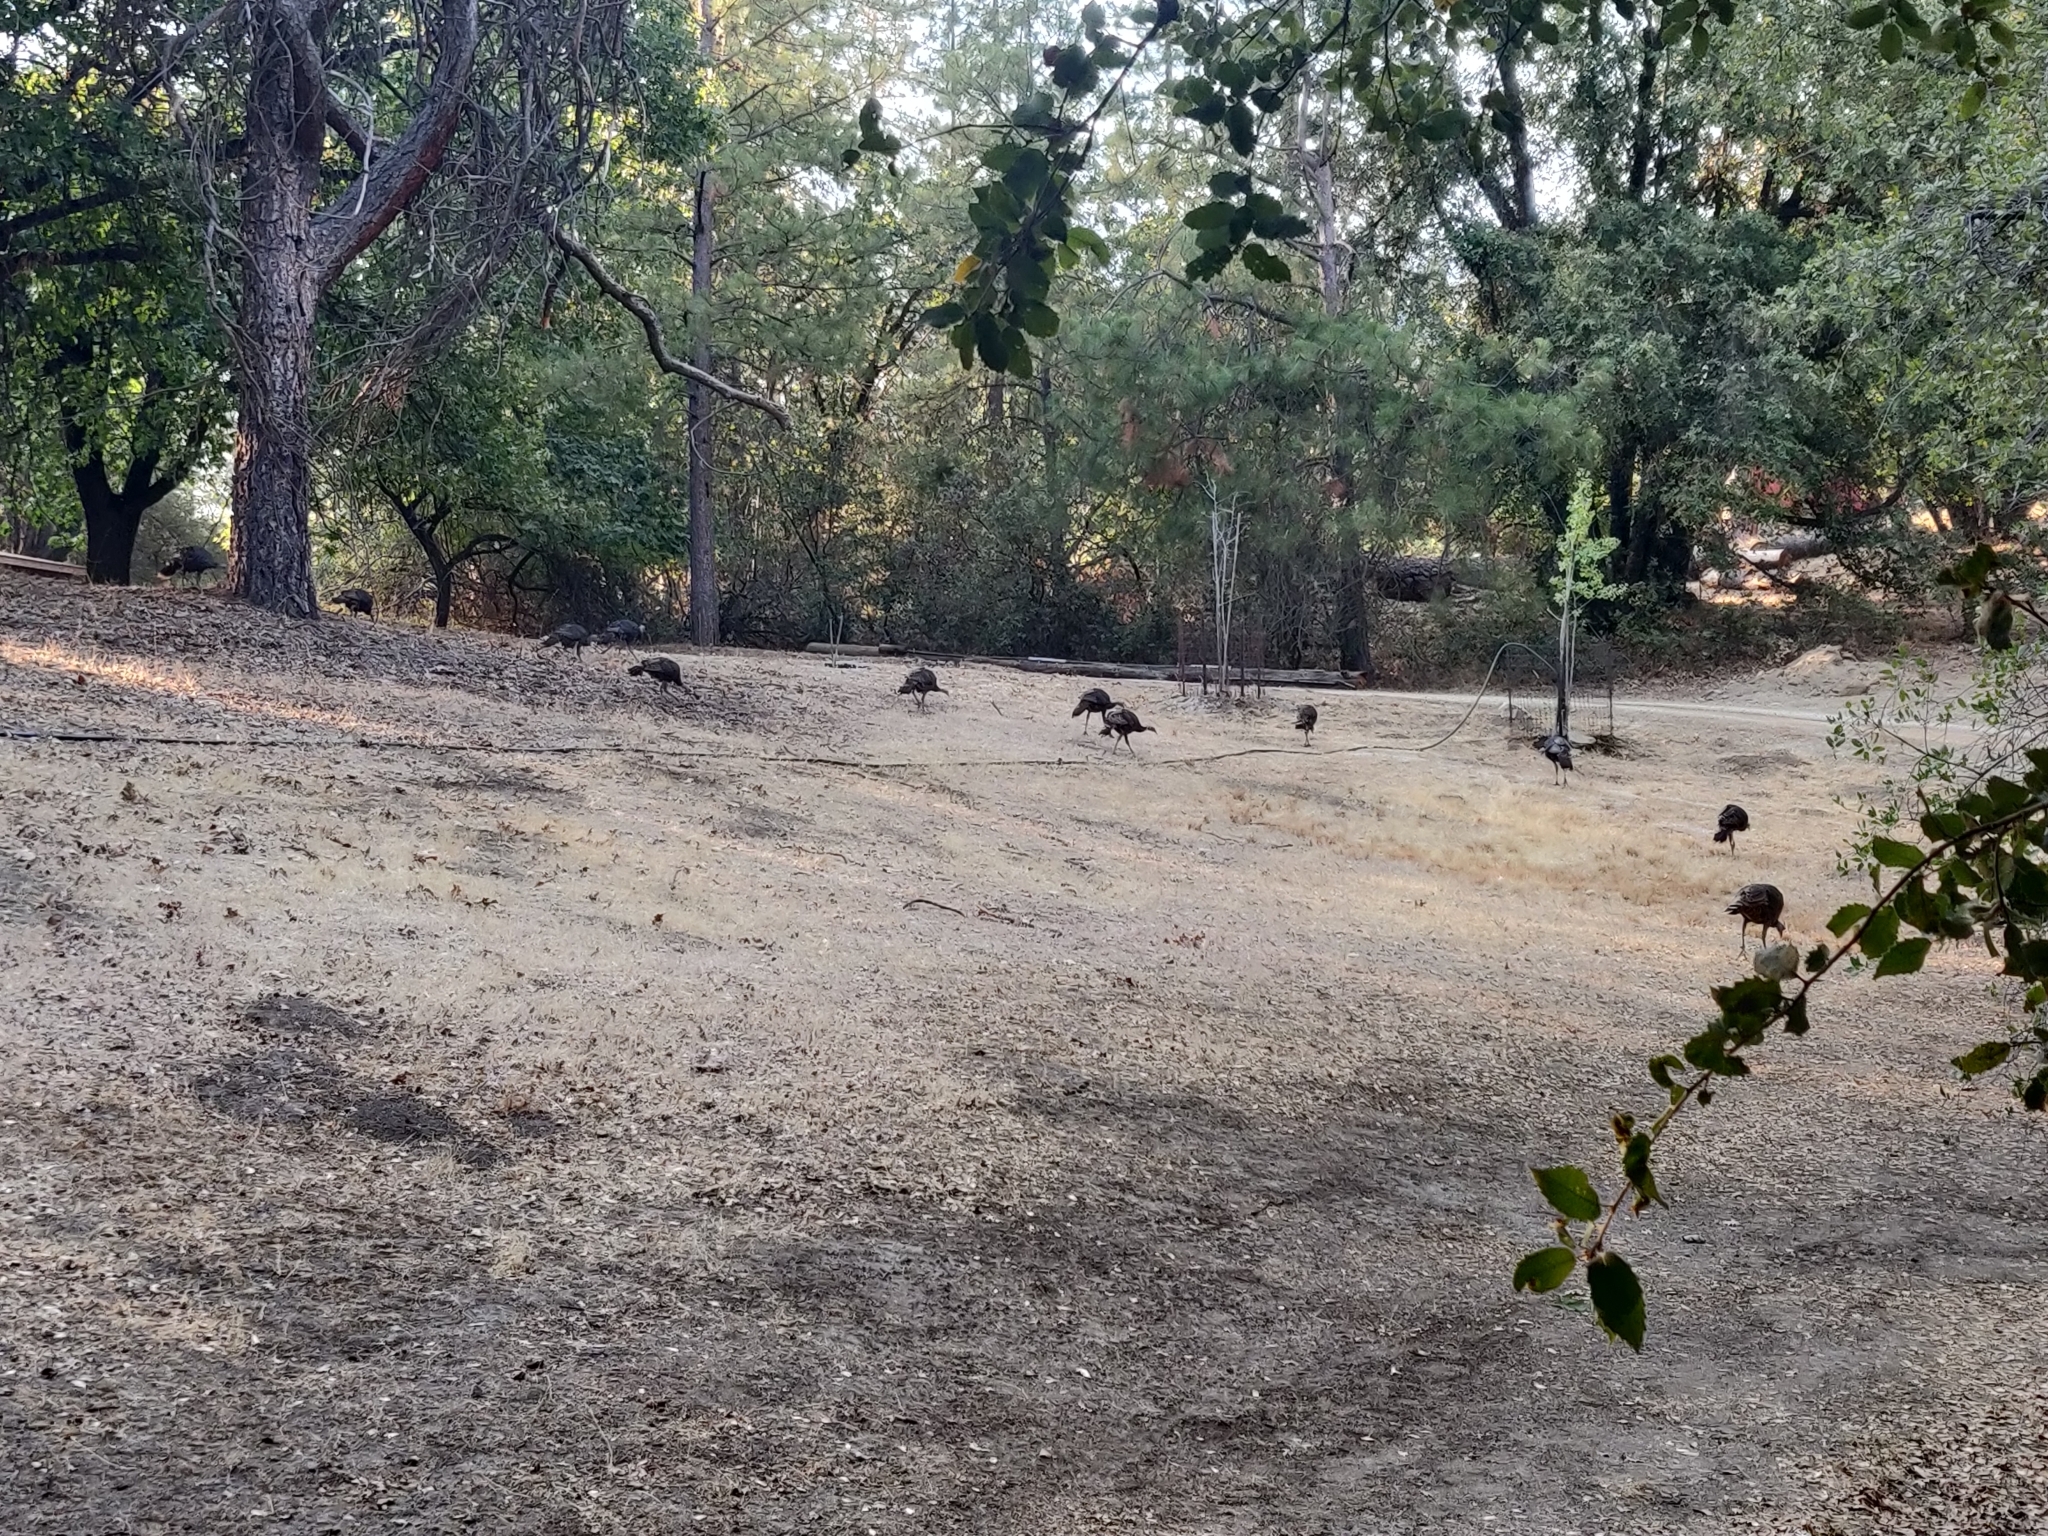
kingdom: Animalia
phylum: Chordata
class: Aves
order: Galliformes
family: Phasianidae
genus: Meleagris
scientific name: Meleagris gallopavo
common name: Wild turkey
